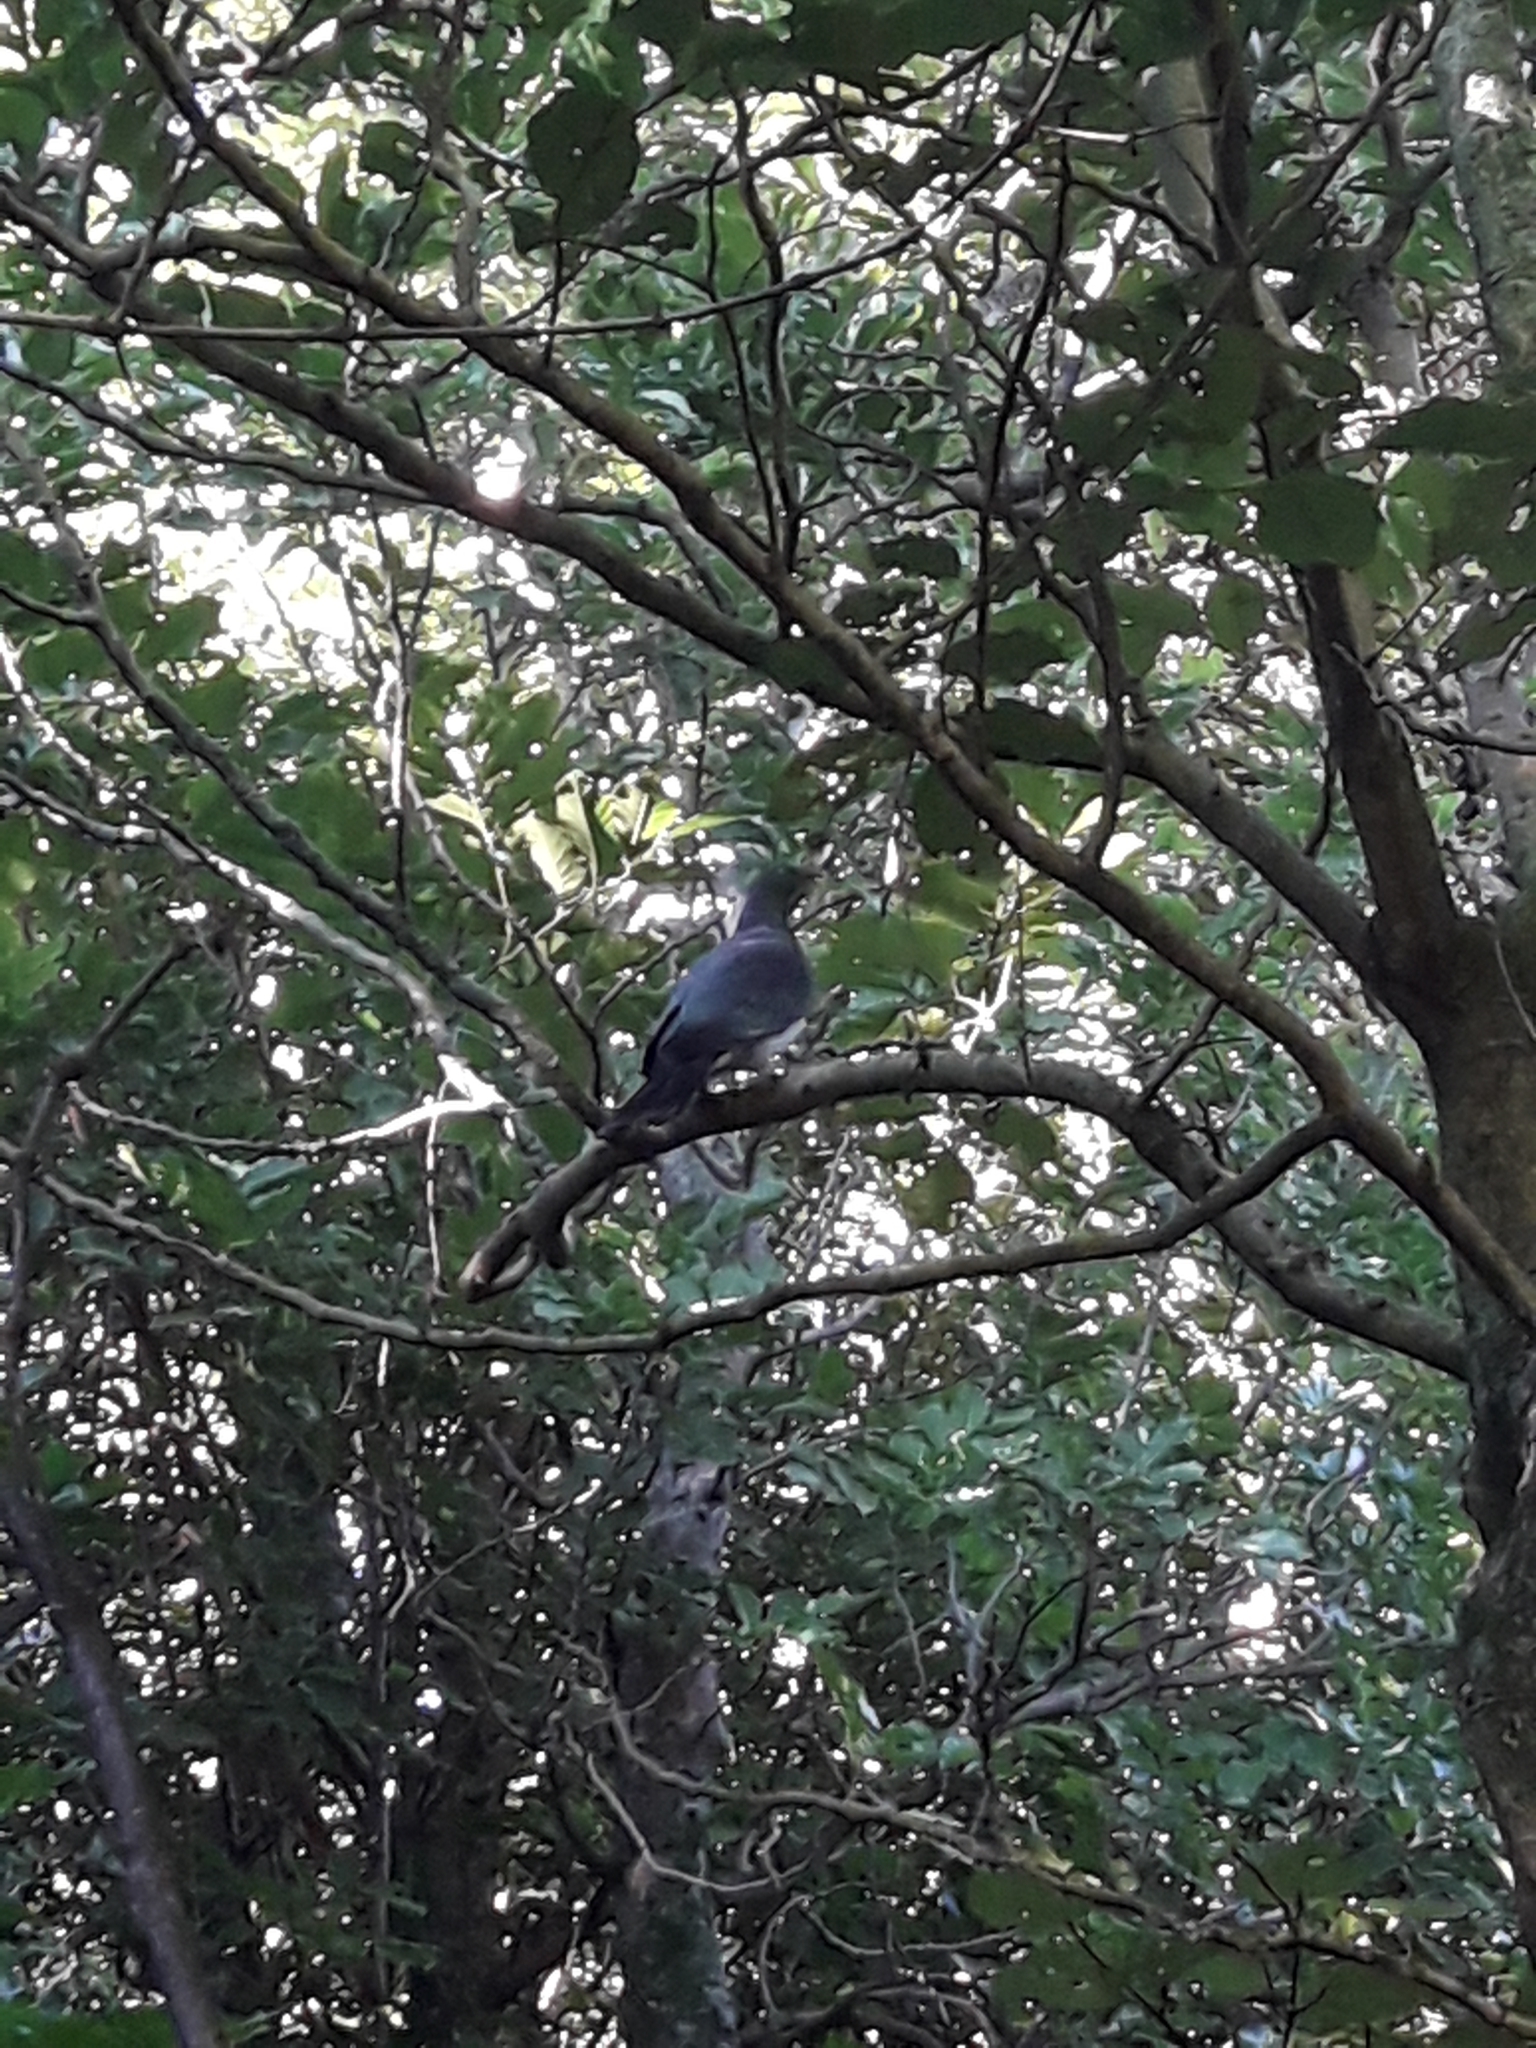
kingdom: Animalia
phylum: Chordata
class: Aves
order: Columbiformes
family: Columbidae
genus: Hemiphaga
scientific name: Hemiphaga novaeseelandiae
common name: New zealand pigeon
